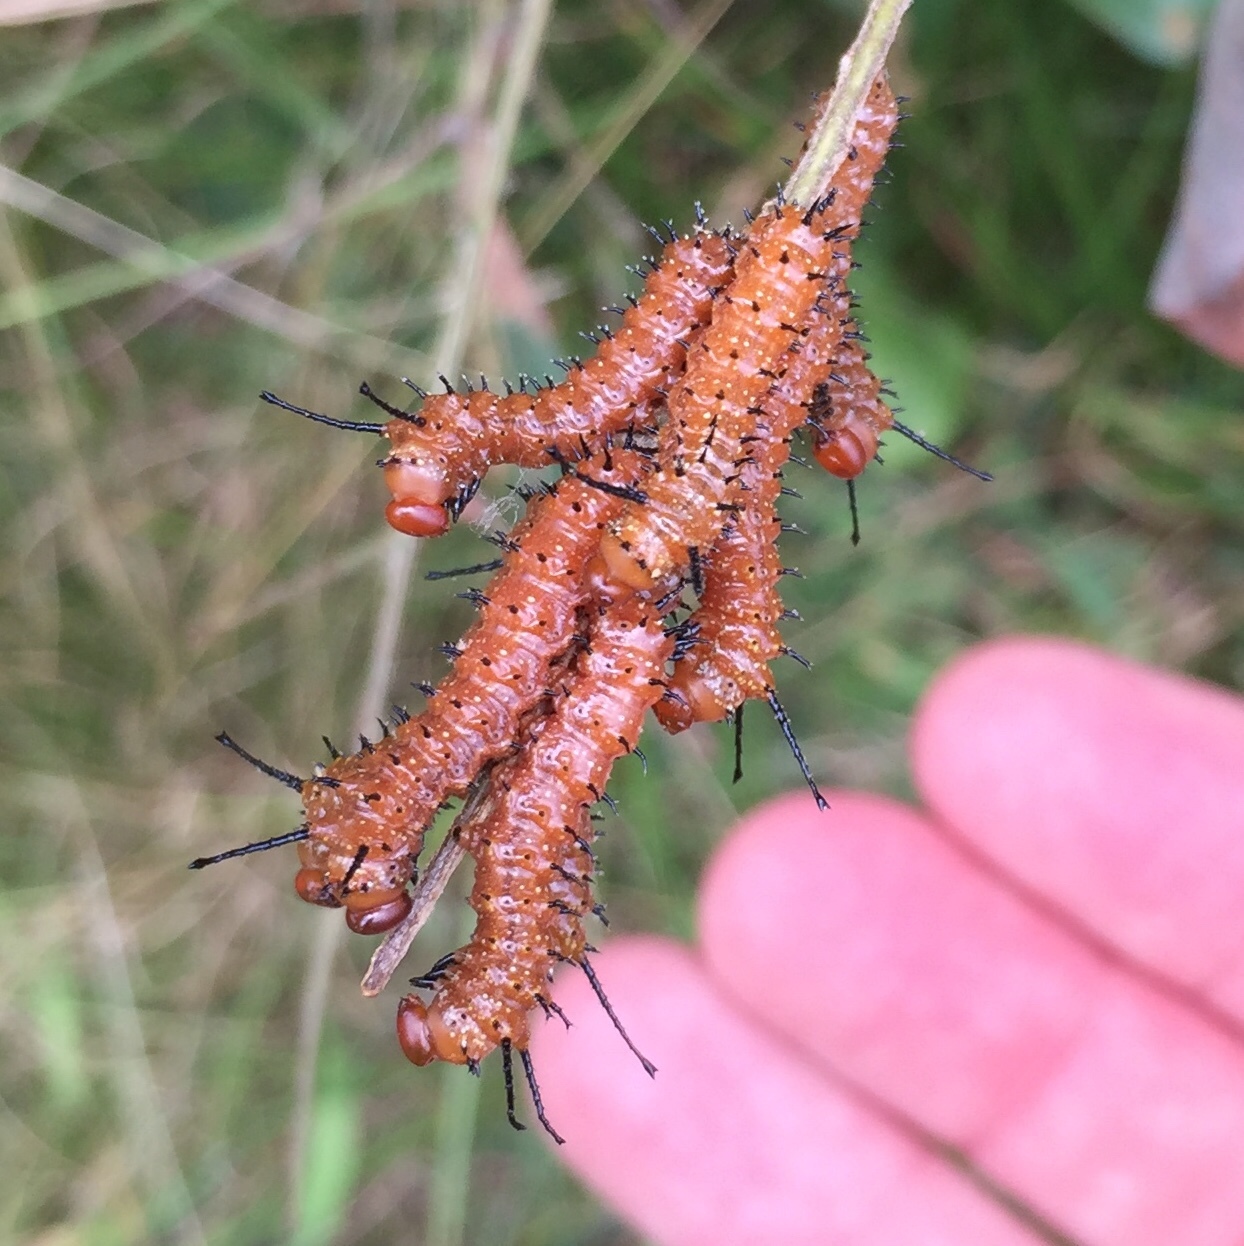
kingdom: Animalia
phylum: Arthropoda
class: Insecta
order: Lepidoptera
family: Saturniidae
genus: Anisota
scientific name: Anisota stigma
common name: Spiny oakworm moth
